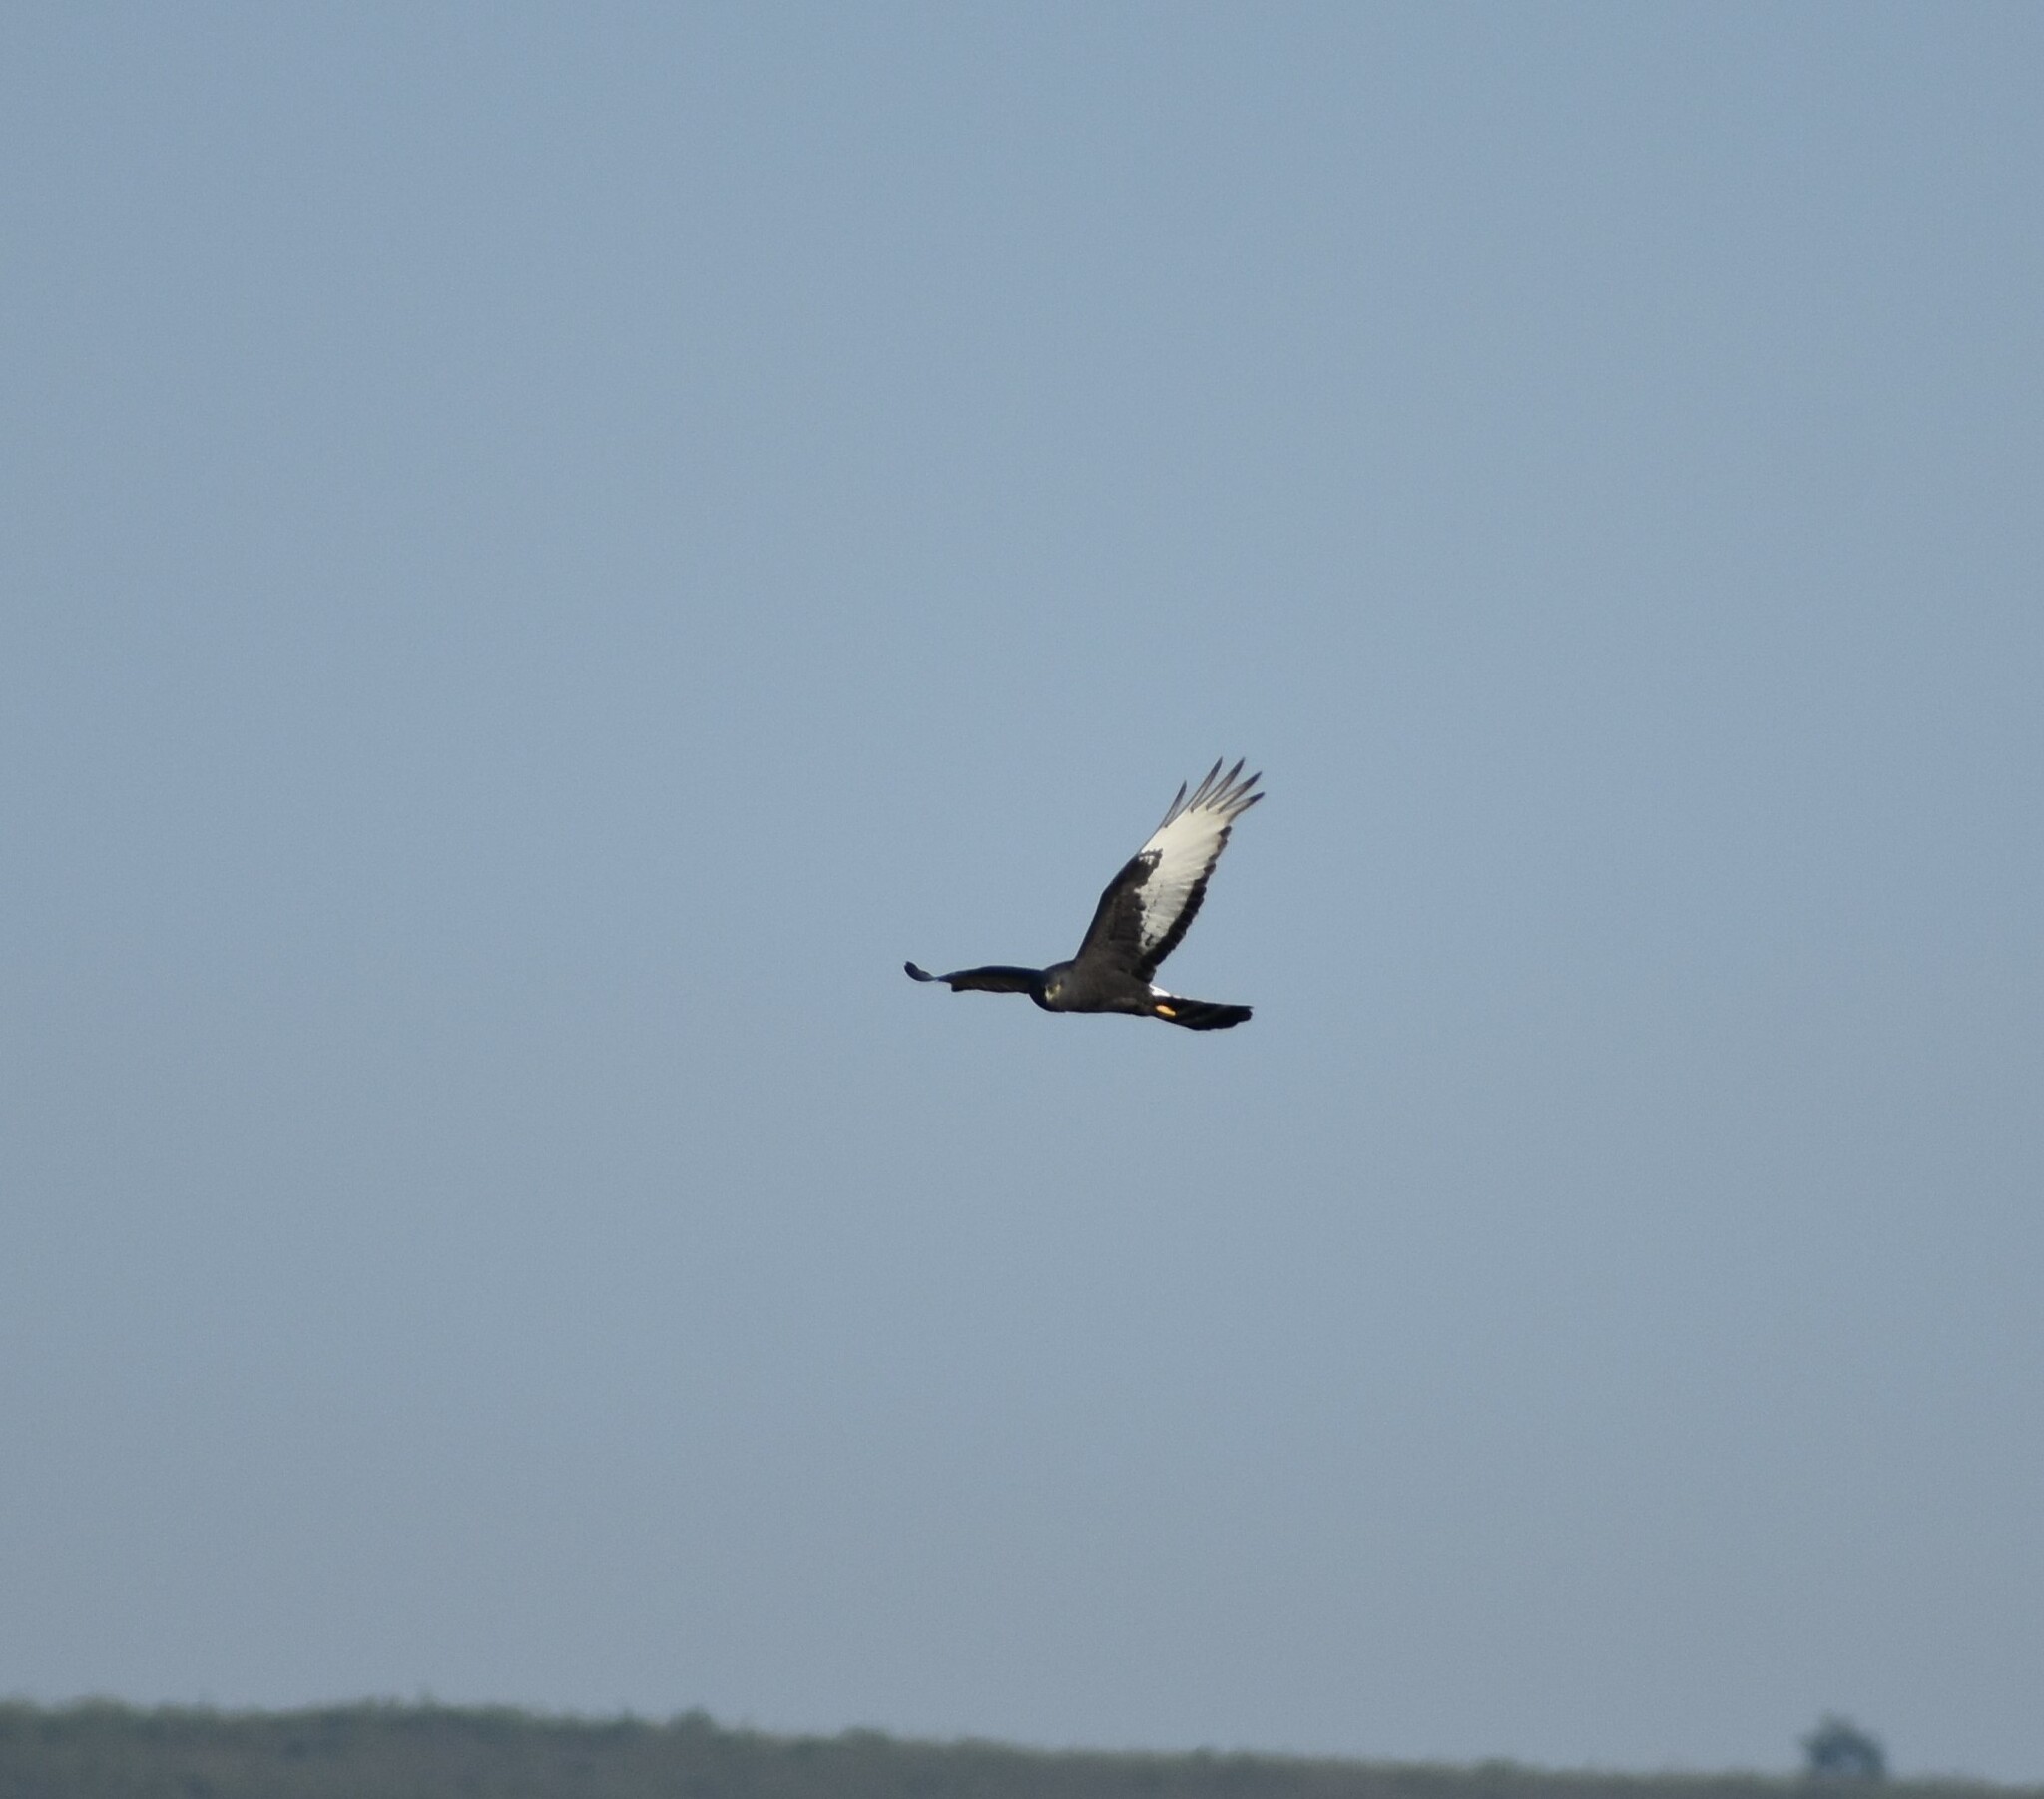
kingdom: Animalia
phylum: Chordata
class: Aves
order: Accipitriformes
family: Accipitridae
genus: Circus
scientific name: Circus maurus
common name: Black harrier
